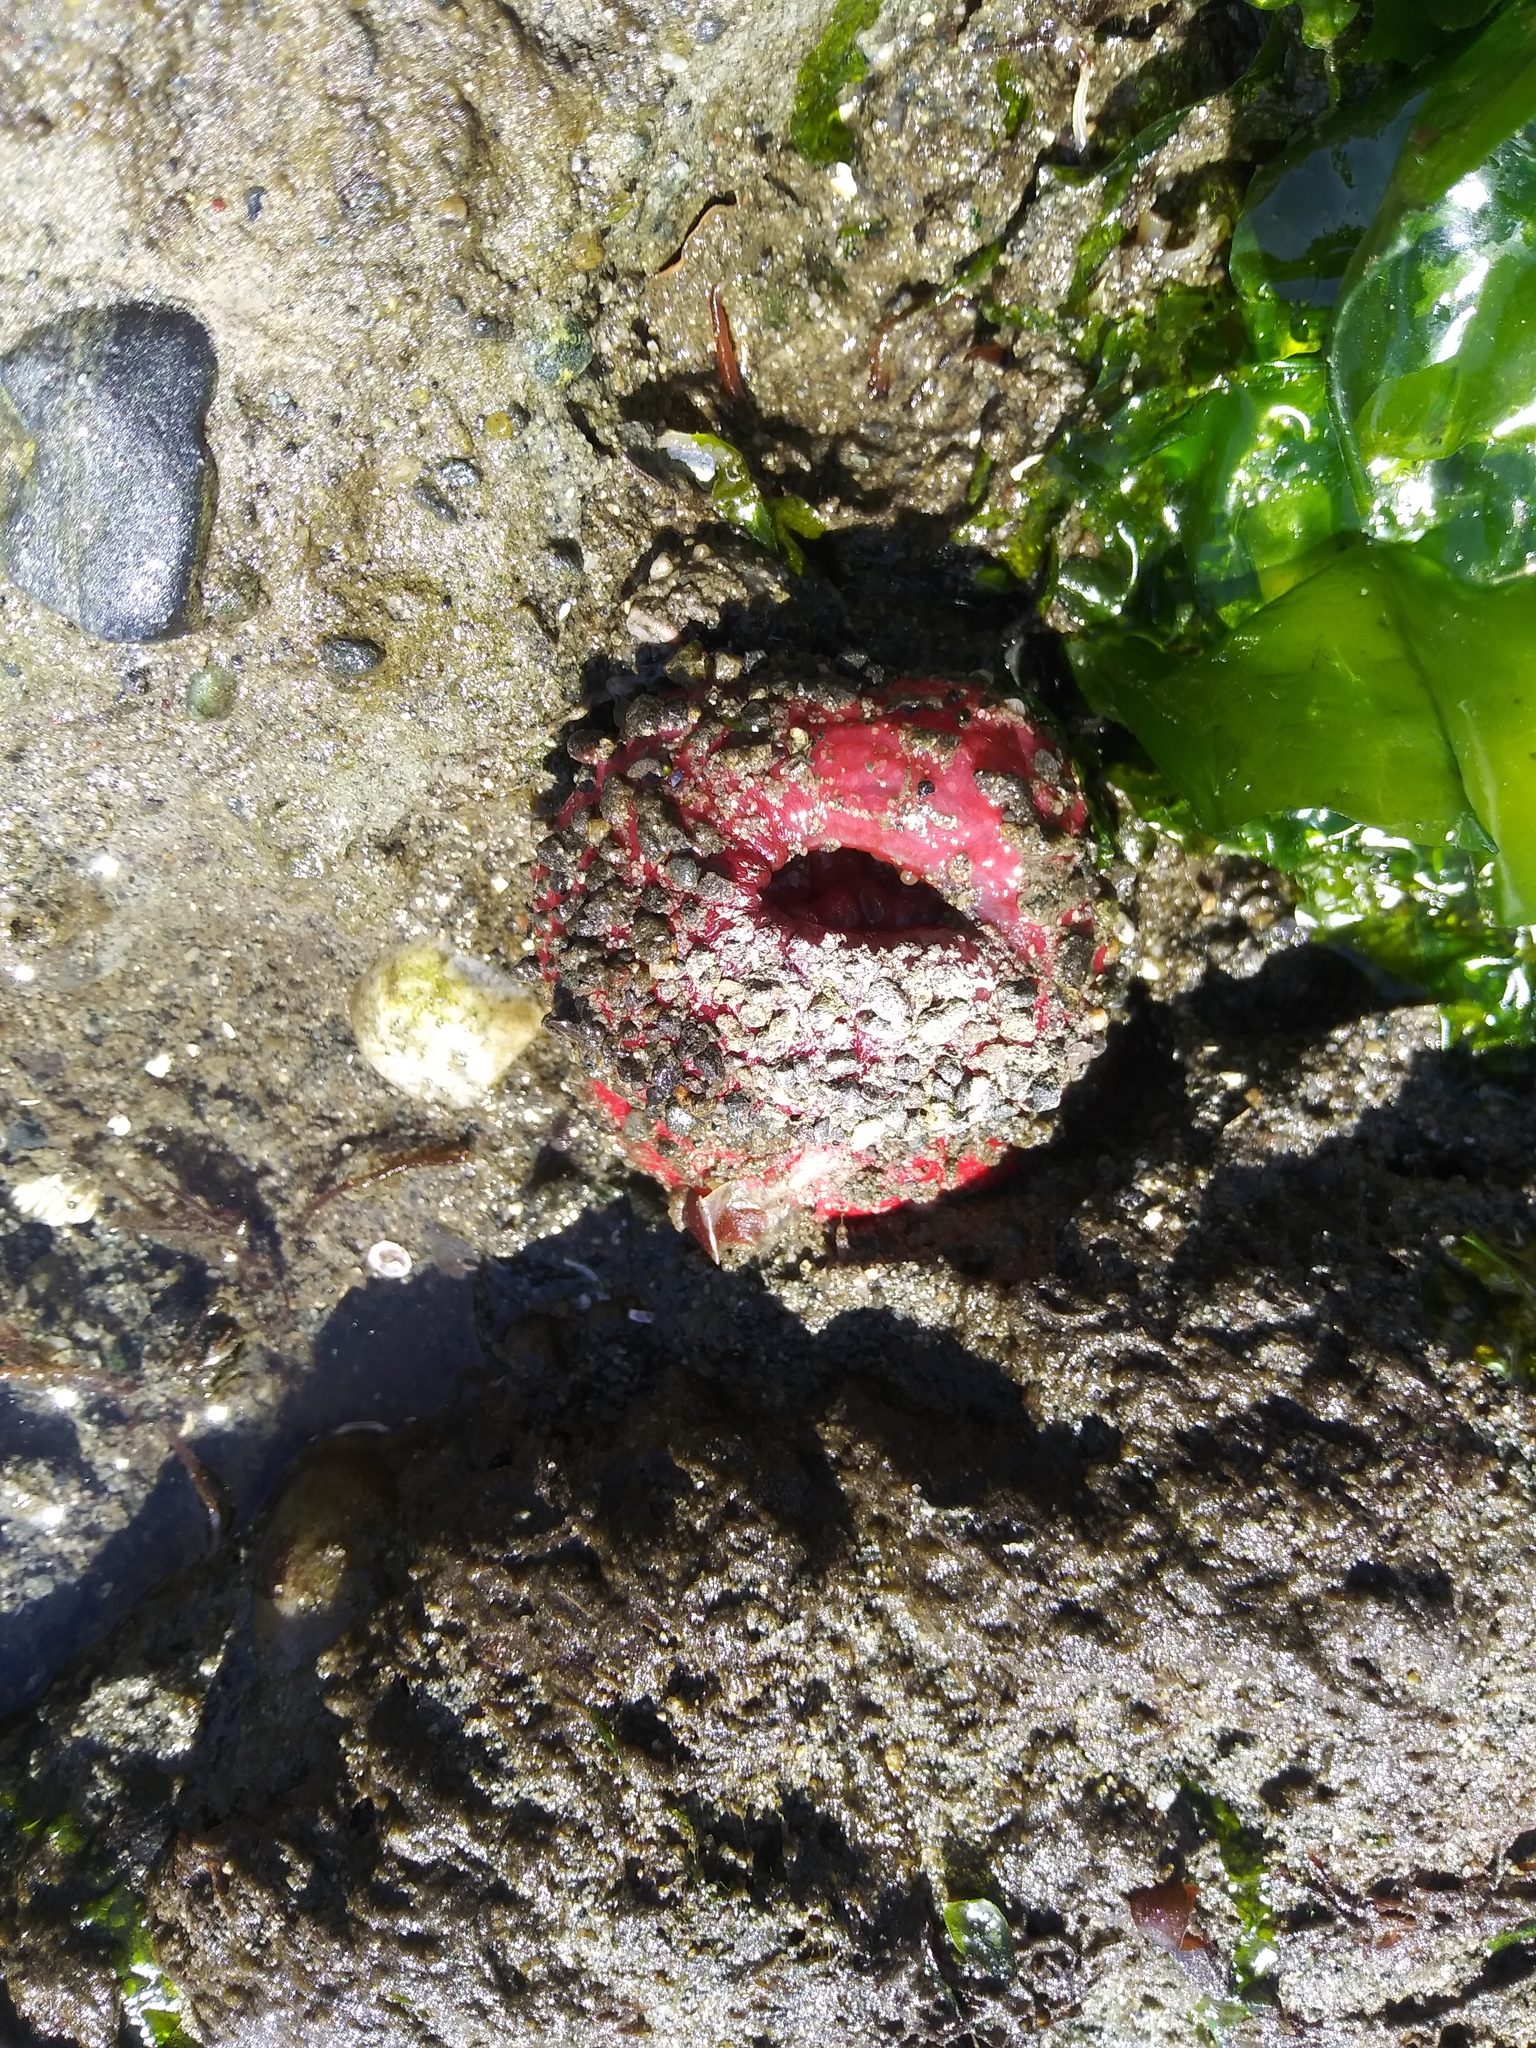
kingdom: Animalia
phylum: Cnidaria
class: Anthozoa
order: Actiniaria
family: Actiniidae
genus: Urticina
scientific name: Urticina clandestina
